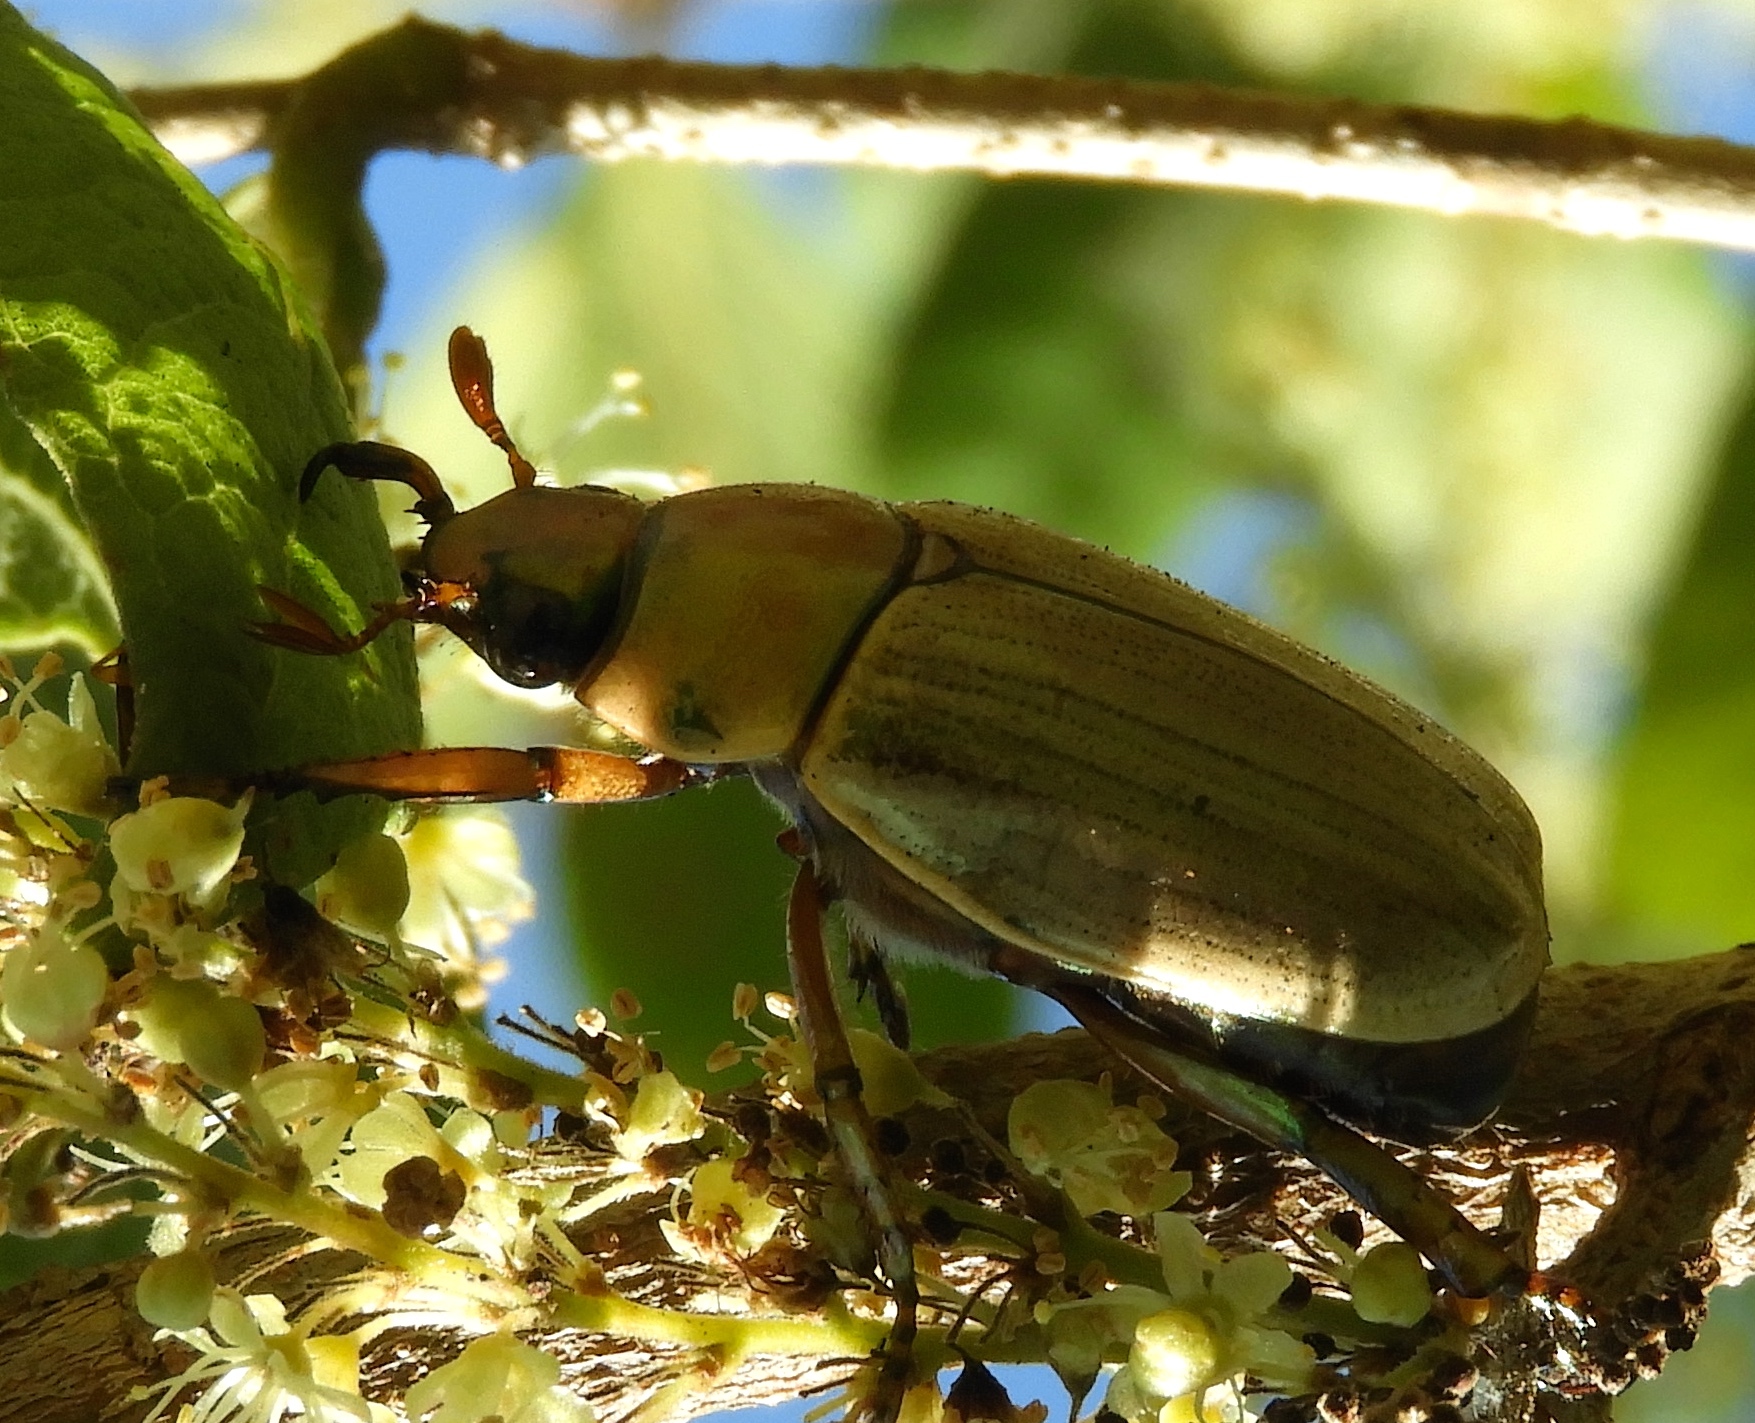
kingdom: Animalia
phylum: Arthropoda
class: Insecta
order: Coleoptera
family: Scarabaeidae
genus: Pelidnota
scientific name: Pelidnota virescens
